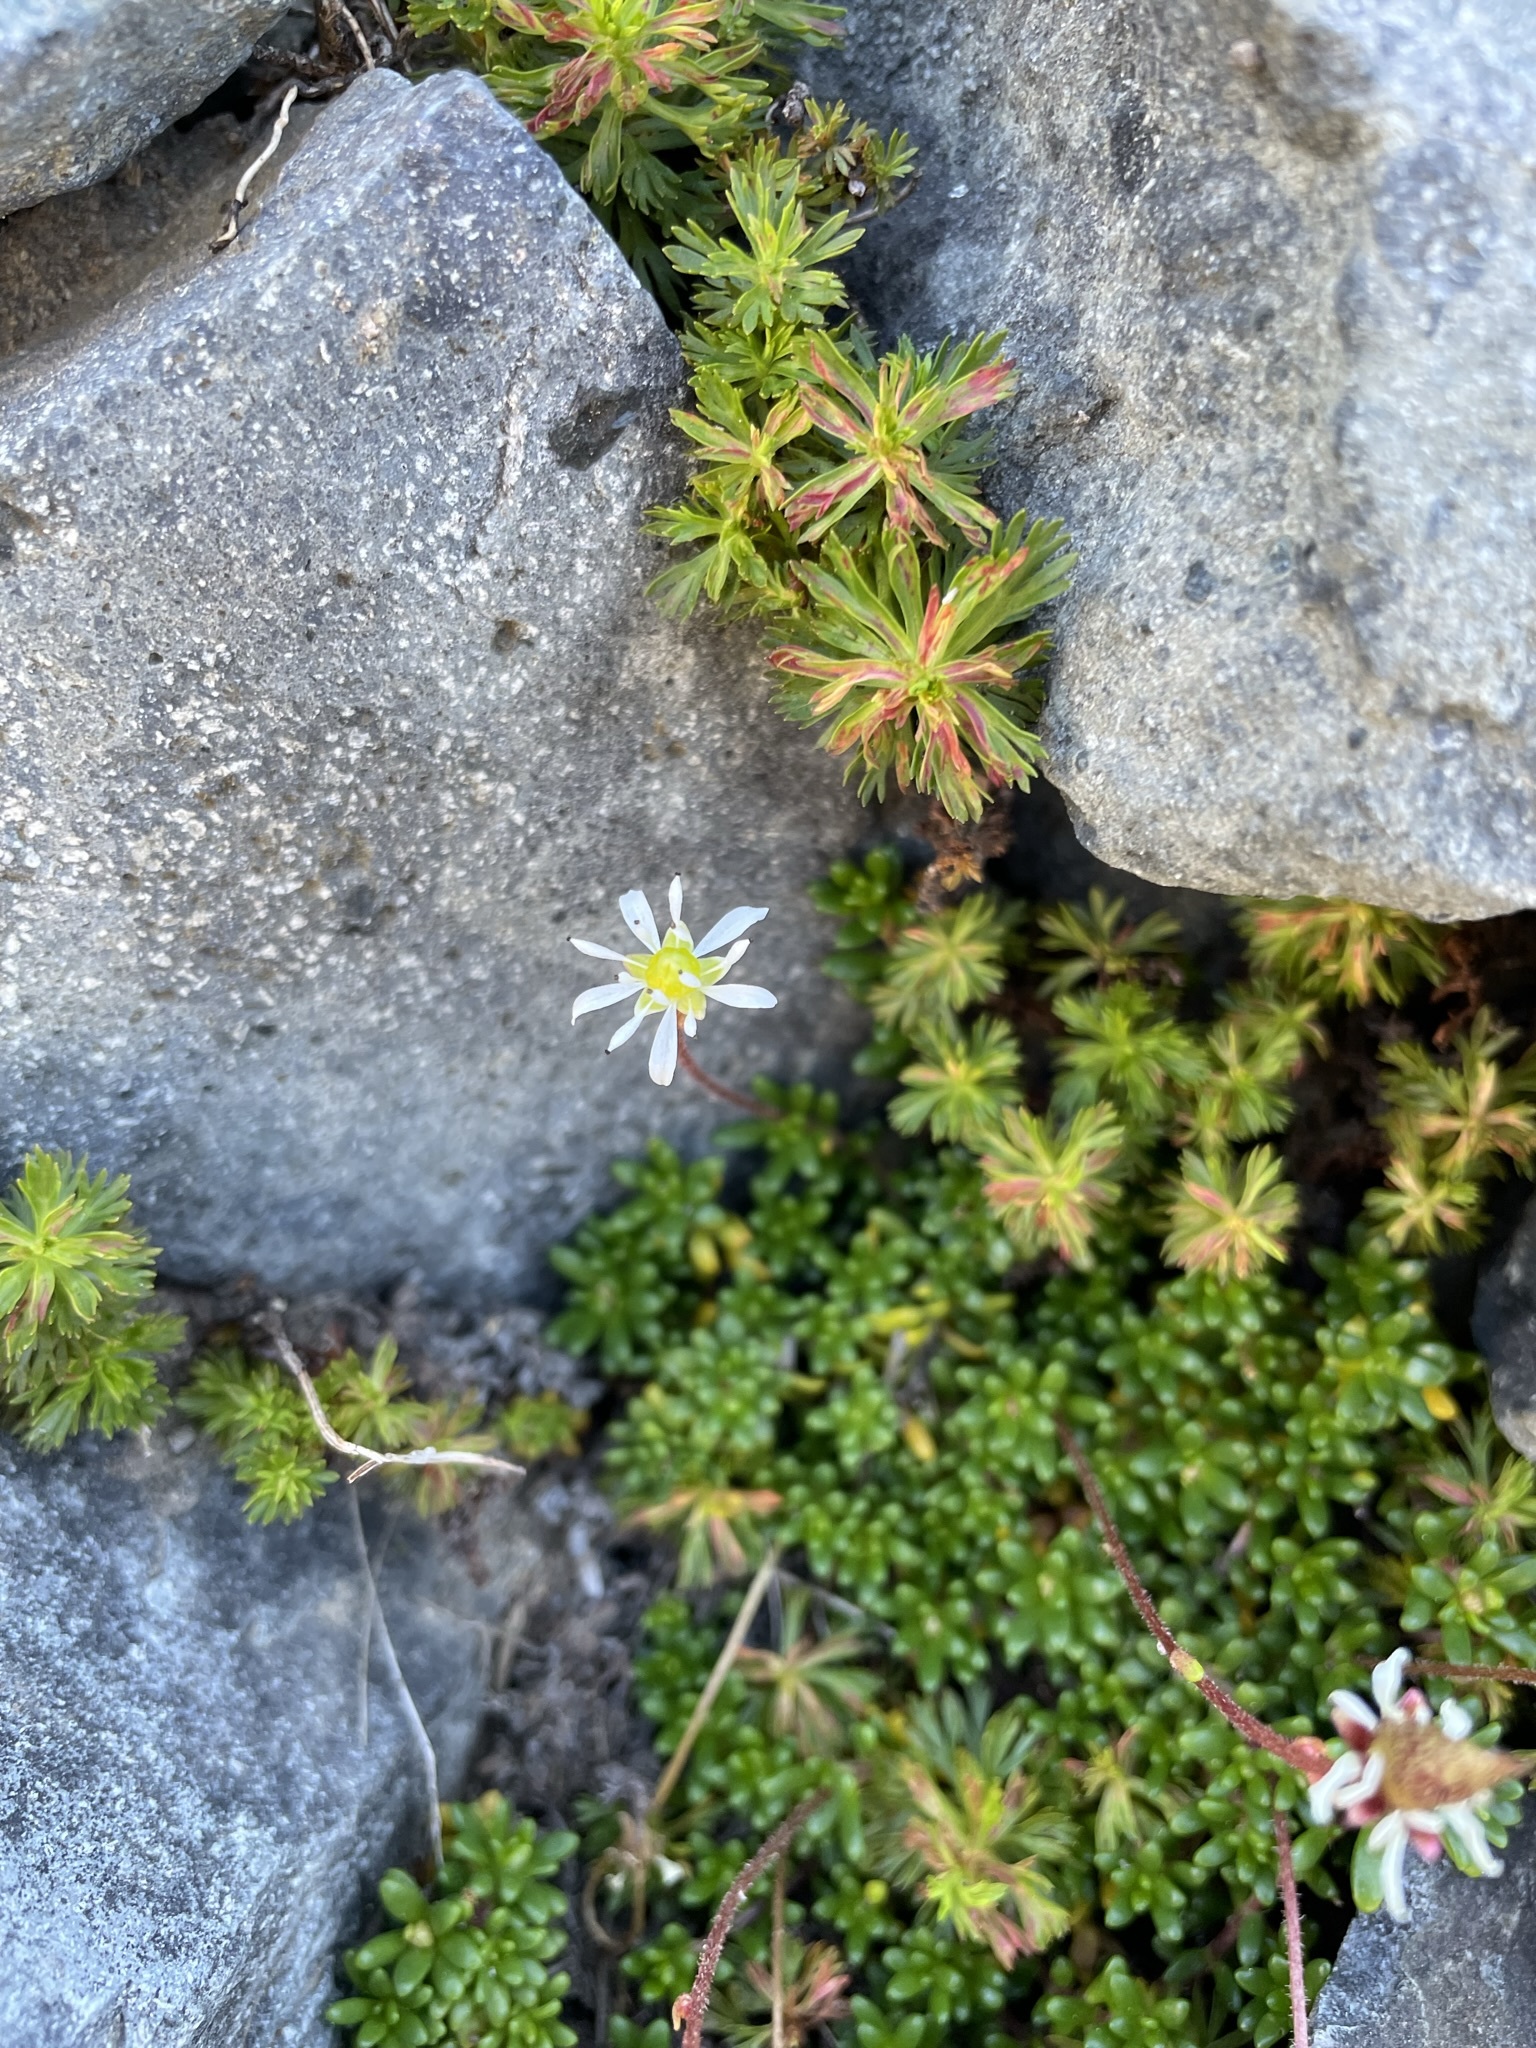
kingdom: Plantae
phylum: Tracheophyta
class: Magnoliopsida
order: Saxifragales
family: Saxifragaceae
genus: Micranthes
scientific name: Micranthes tolmiei
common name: Tolmie's saxifrage
